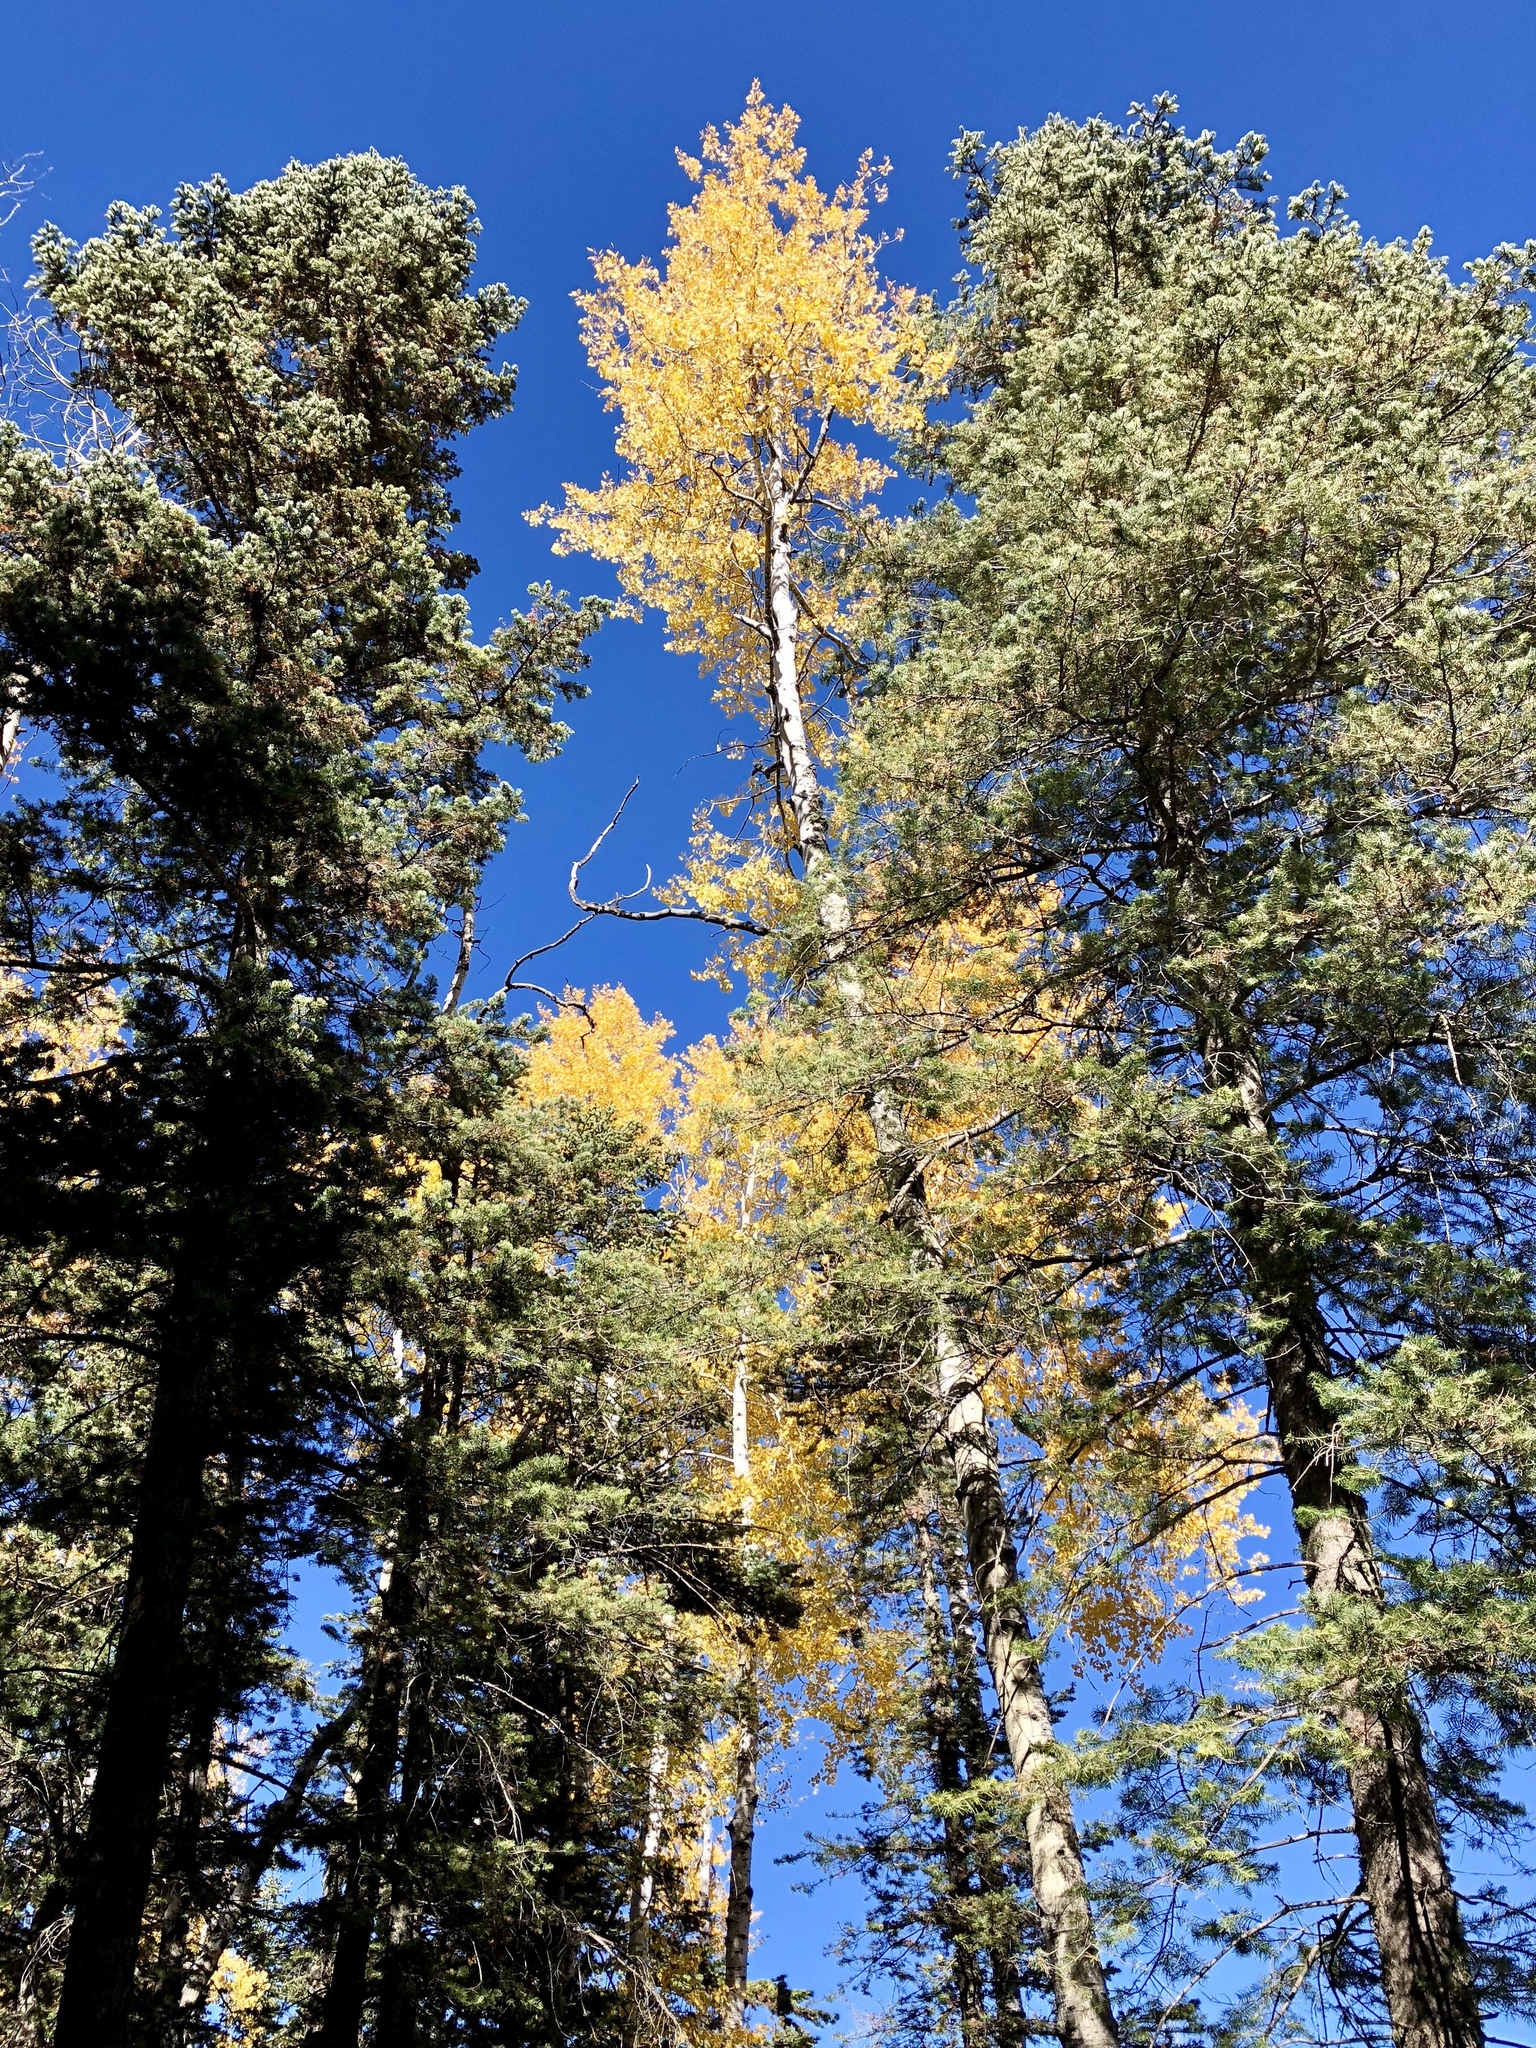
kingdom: Plantae
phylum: Tracheophyta
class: Magnoliopsida
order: Malpighiales
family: Salicaceae
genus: Populus
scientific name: Populus tremuloides
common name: Quaking aspen
